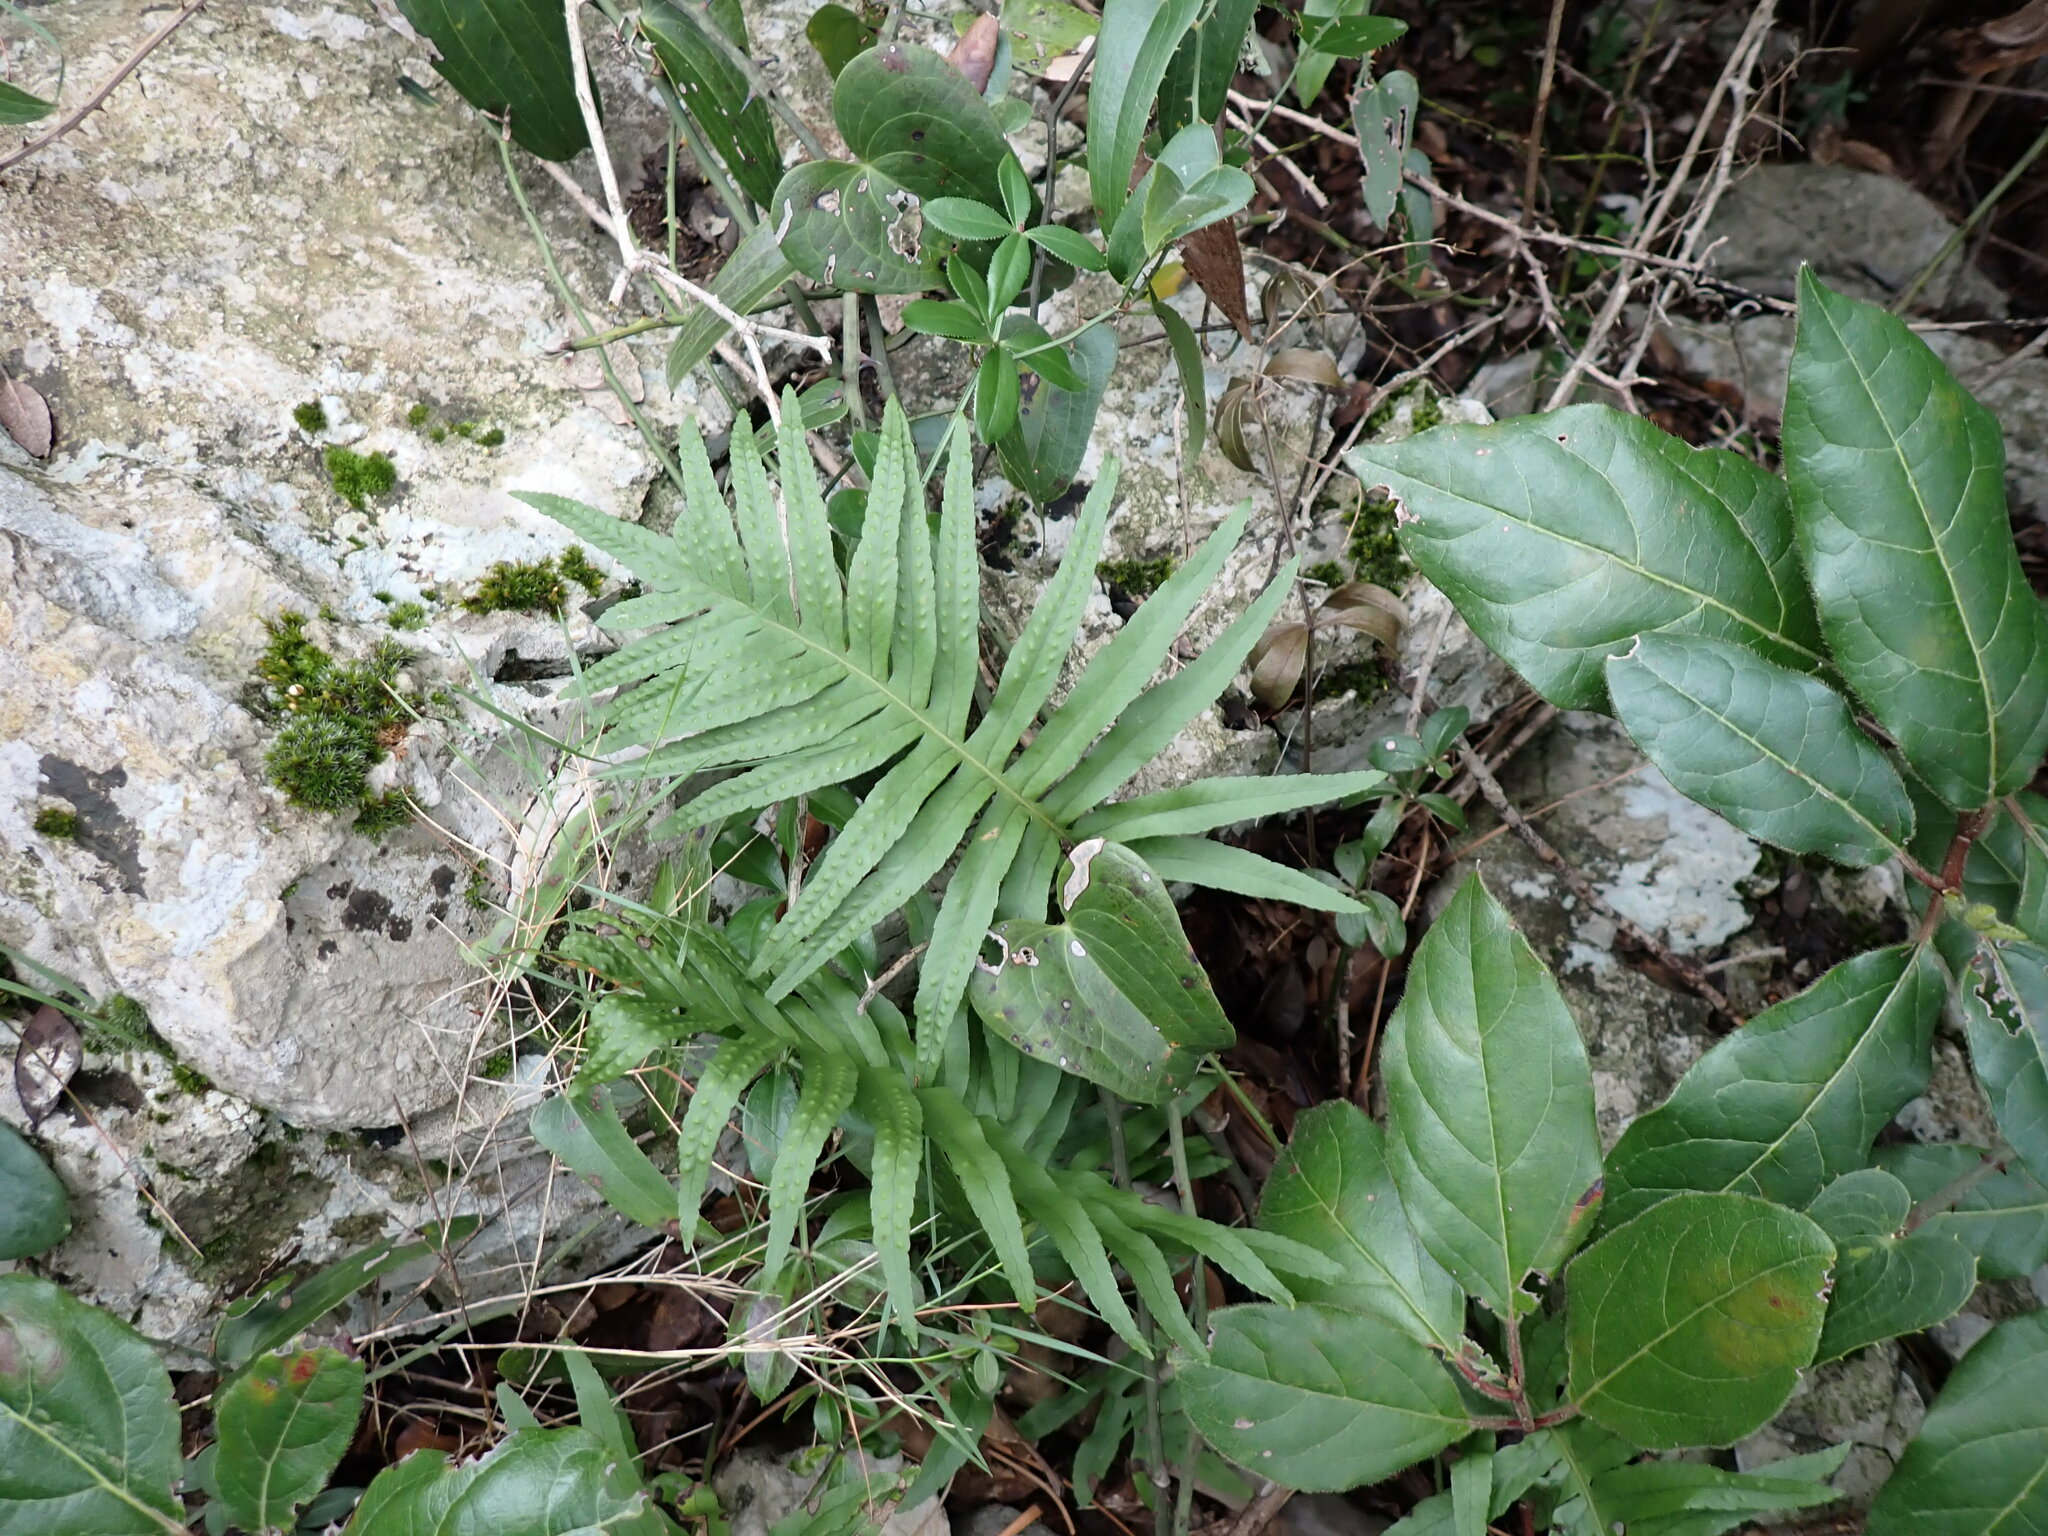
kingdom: Plantae
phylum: Tracheophyta
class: Polypodiopsida
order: Polypodiales
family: Polypodiaceae
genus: Polypodium
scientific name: Polypodium cambricum
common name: Southern polypody
